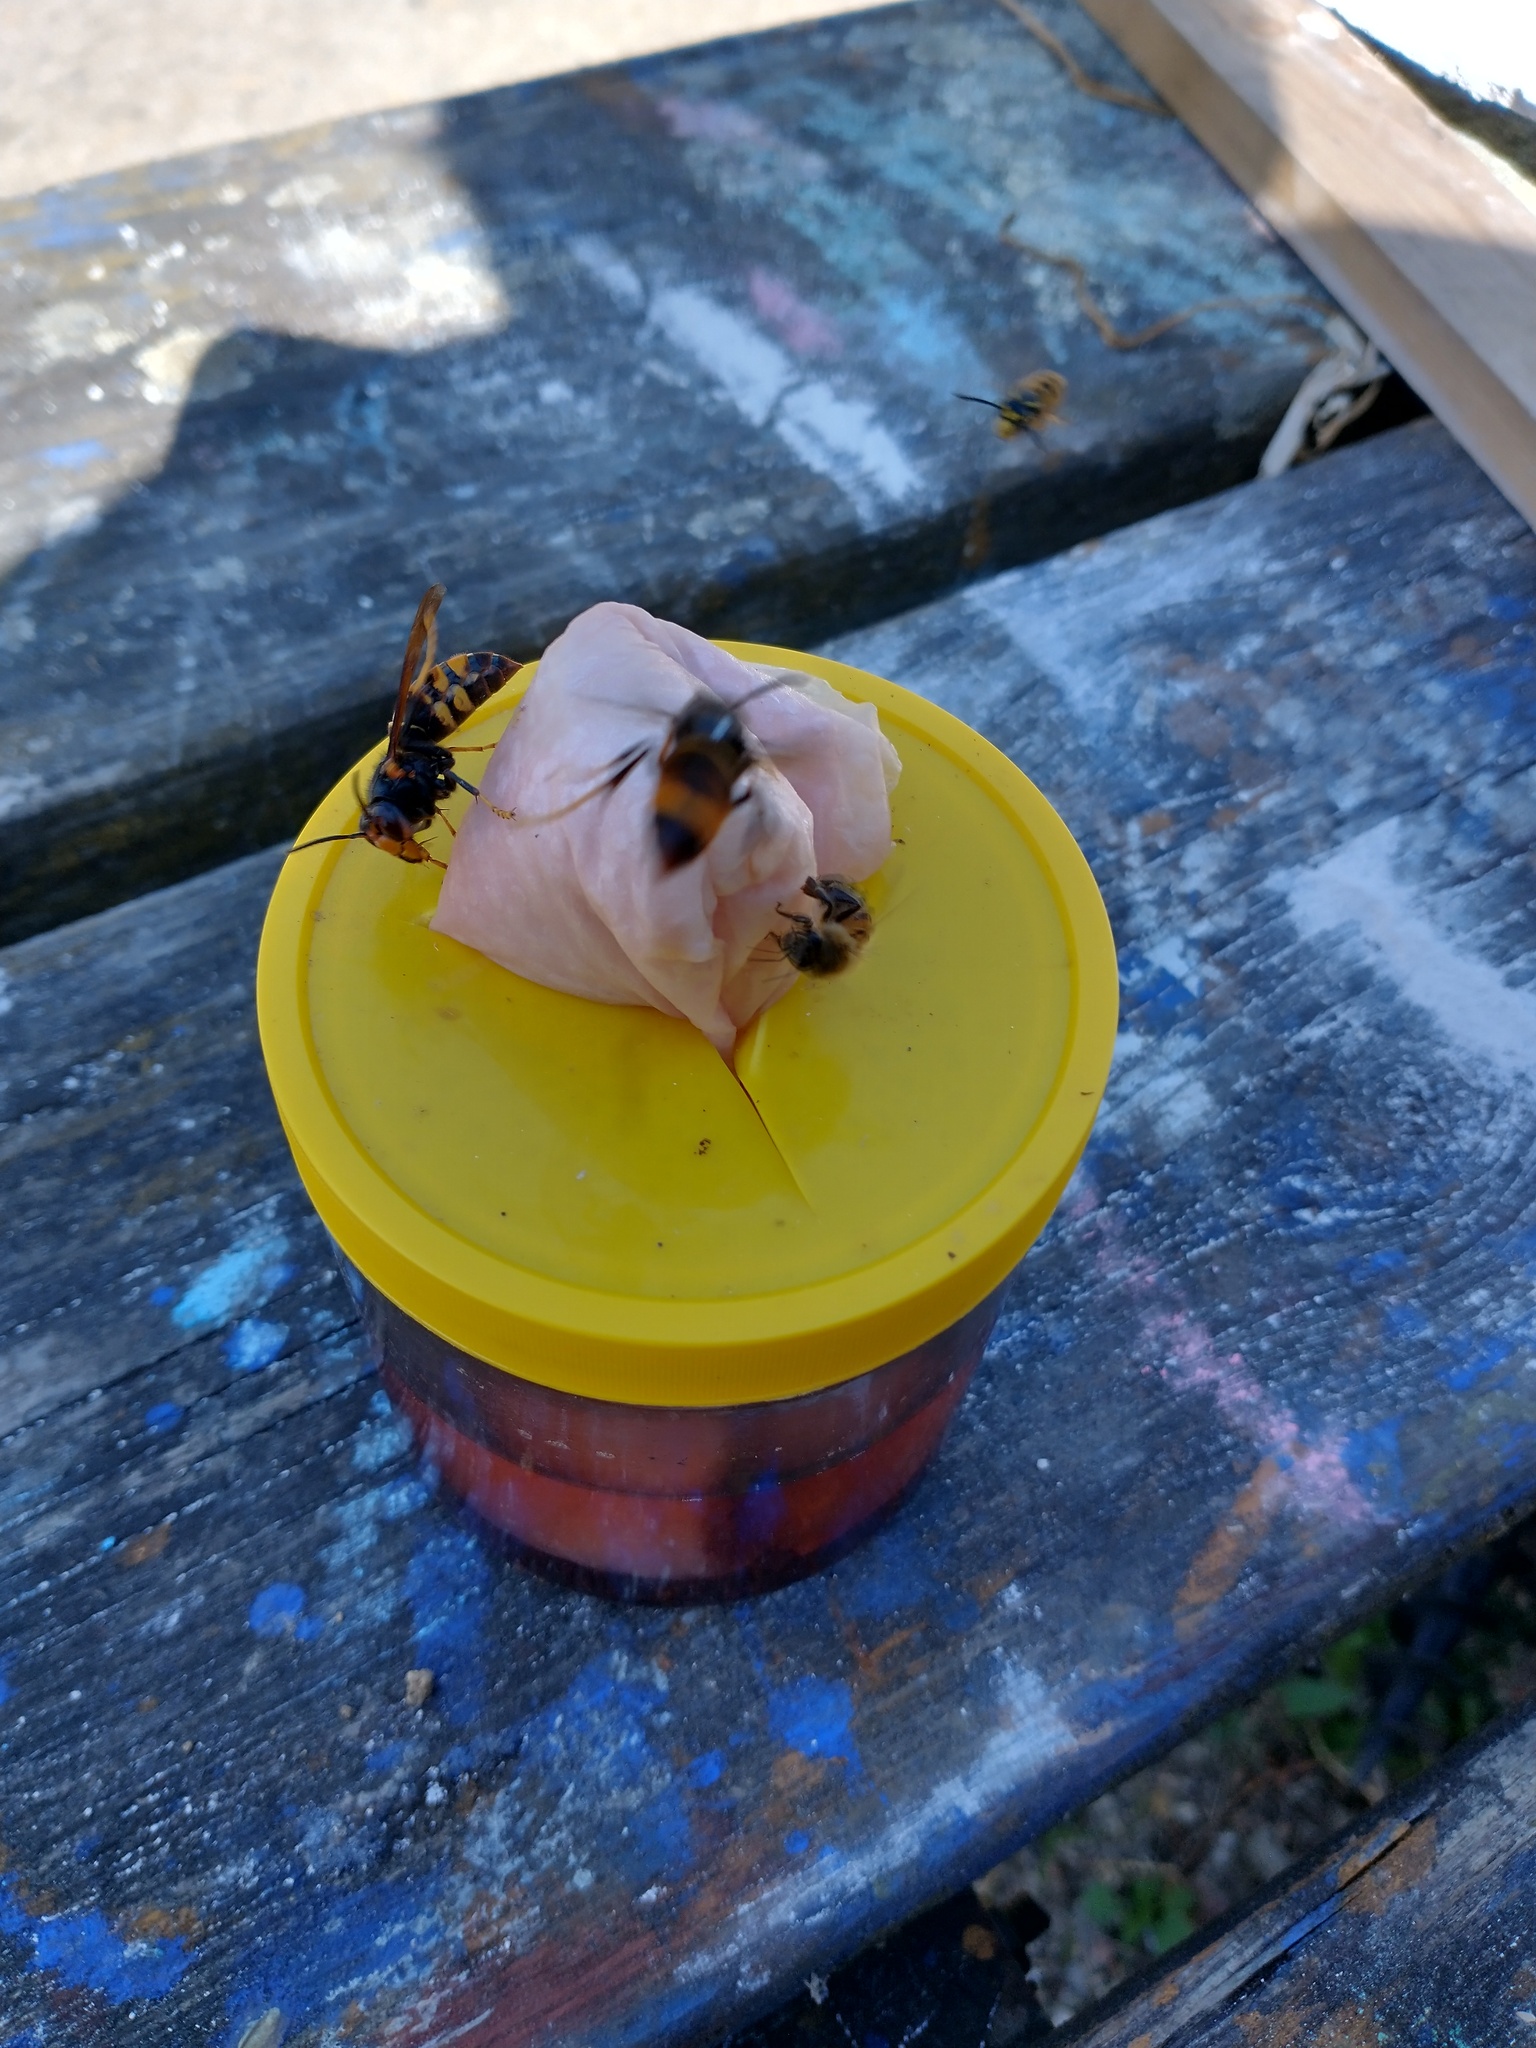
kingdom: Animalia
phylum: Arthropoda
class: Insecta
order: Hymenoptera
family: Vespidae
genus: Vespa
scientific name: Vespa velutina
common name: Asian hornet
